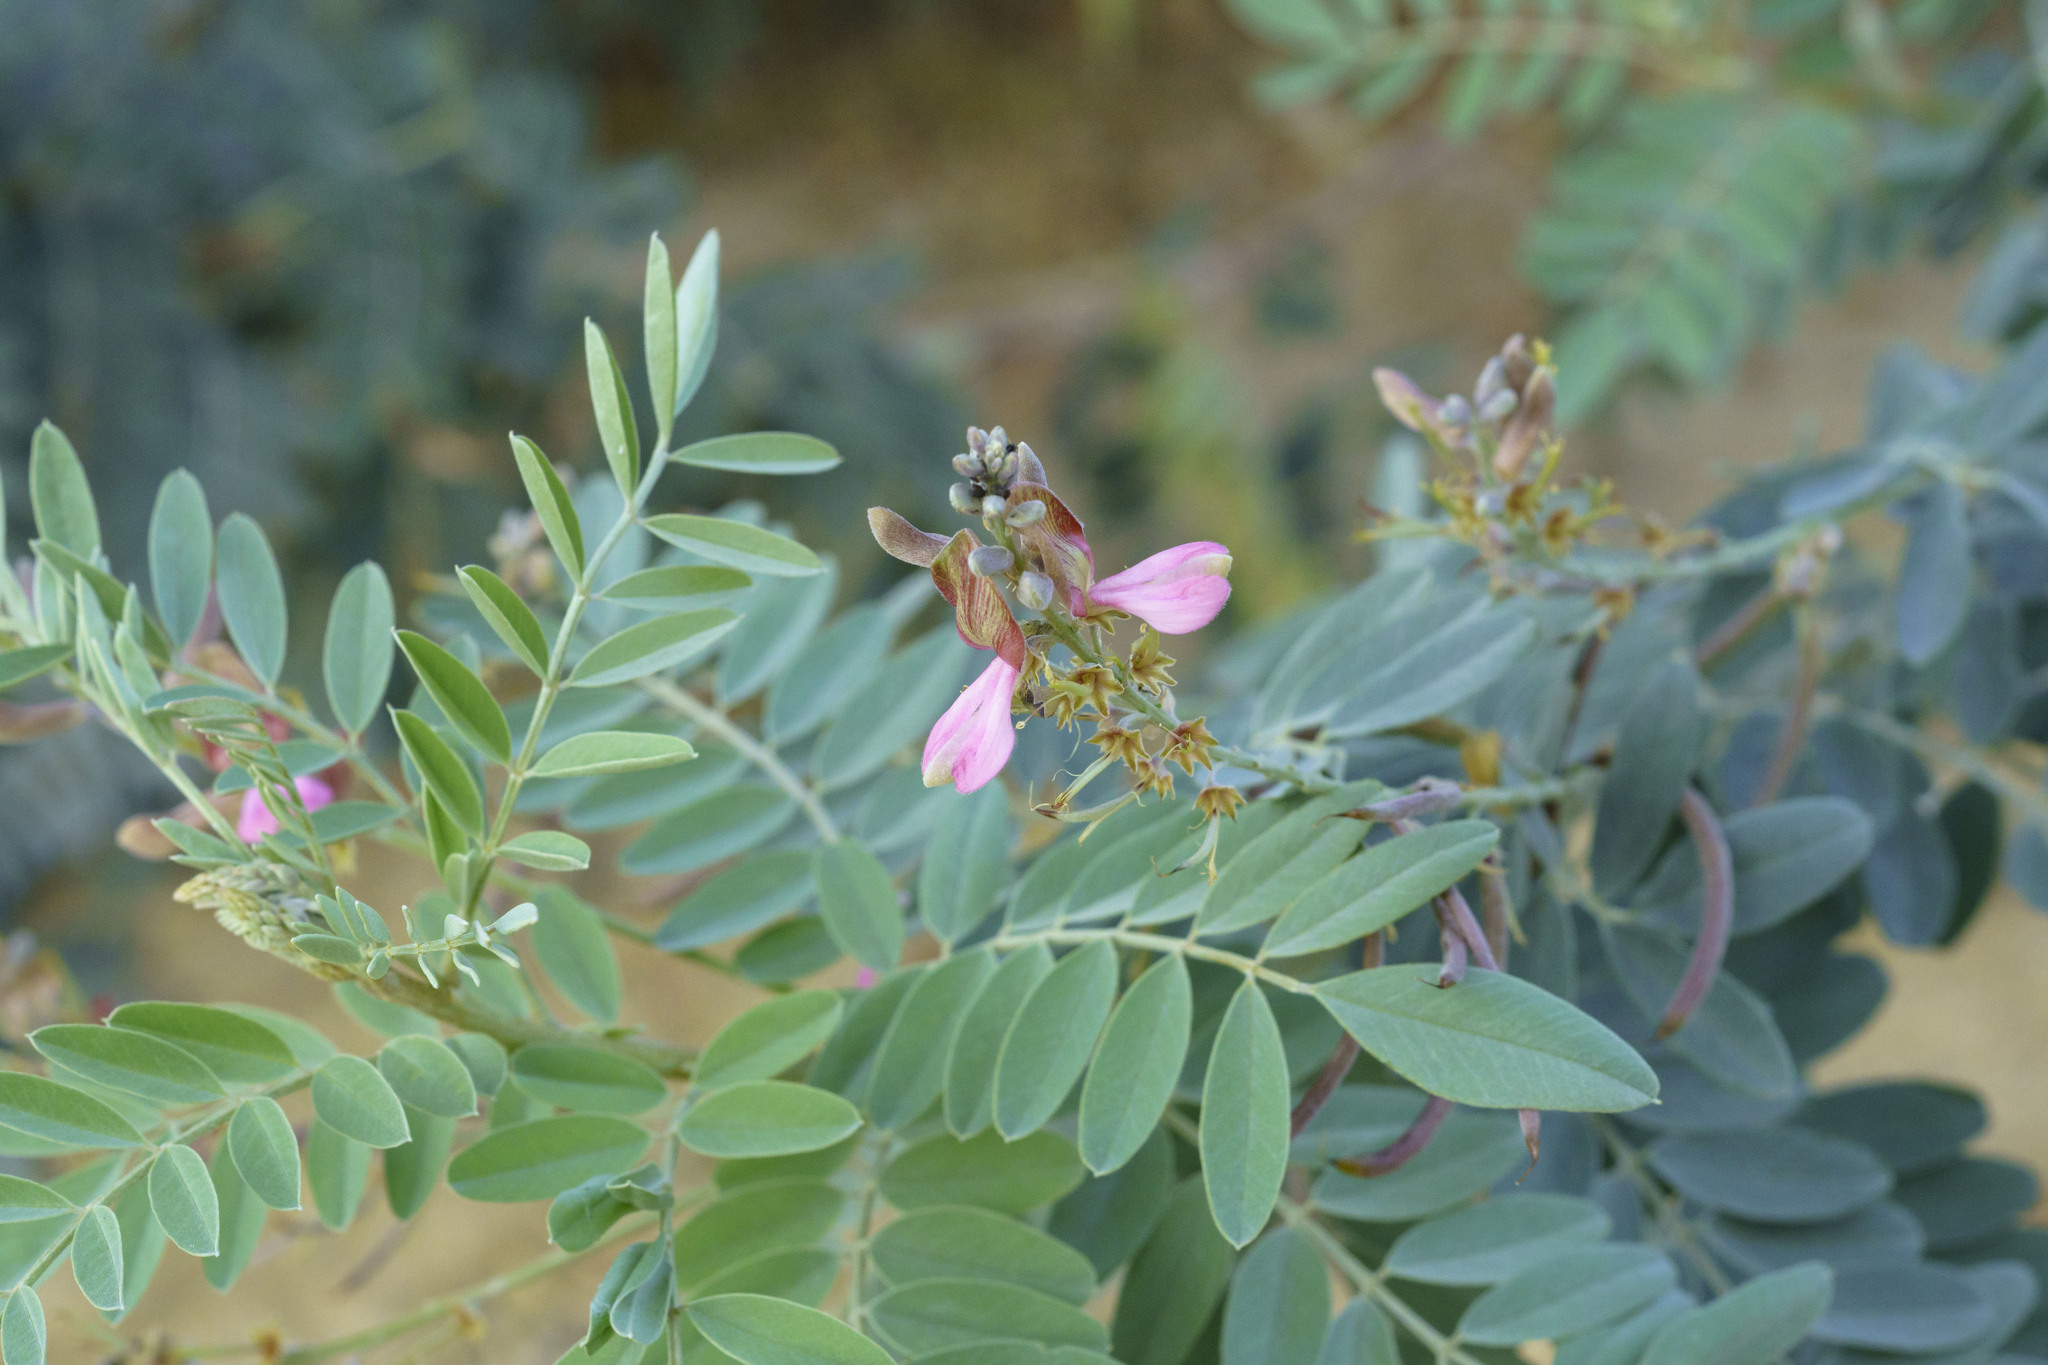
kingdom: Plantae
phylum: Tracheophyta
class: Magnoliopsida
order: Fabales
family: Fabaceae
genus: Indigofera
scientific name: Indigofera fruticosa
